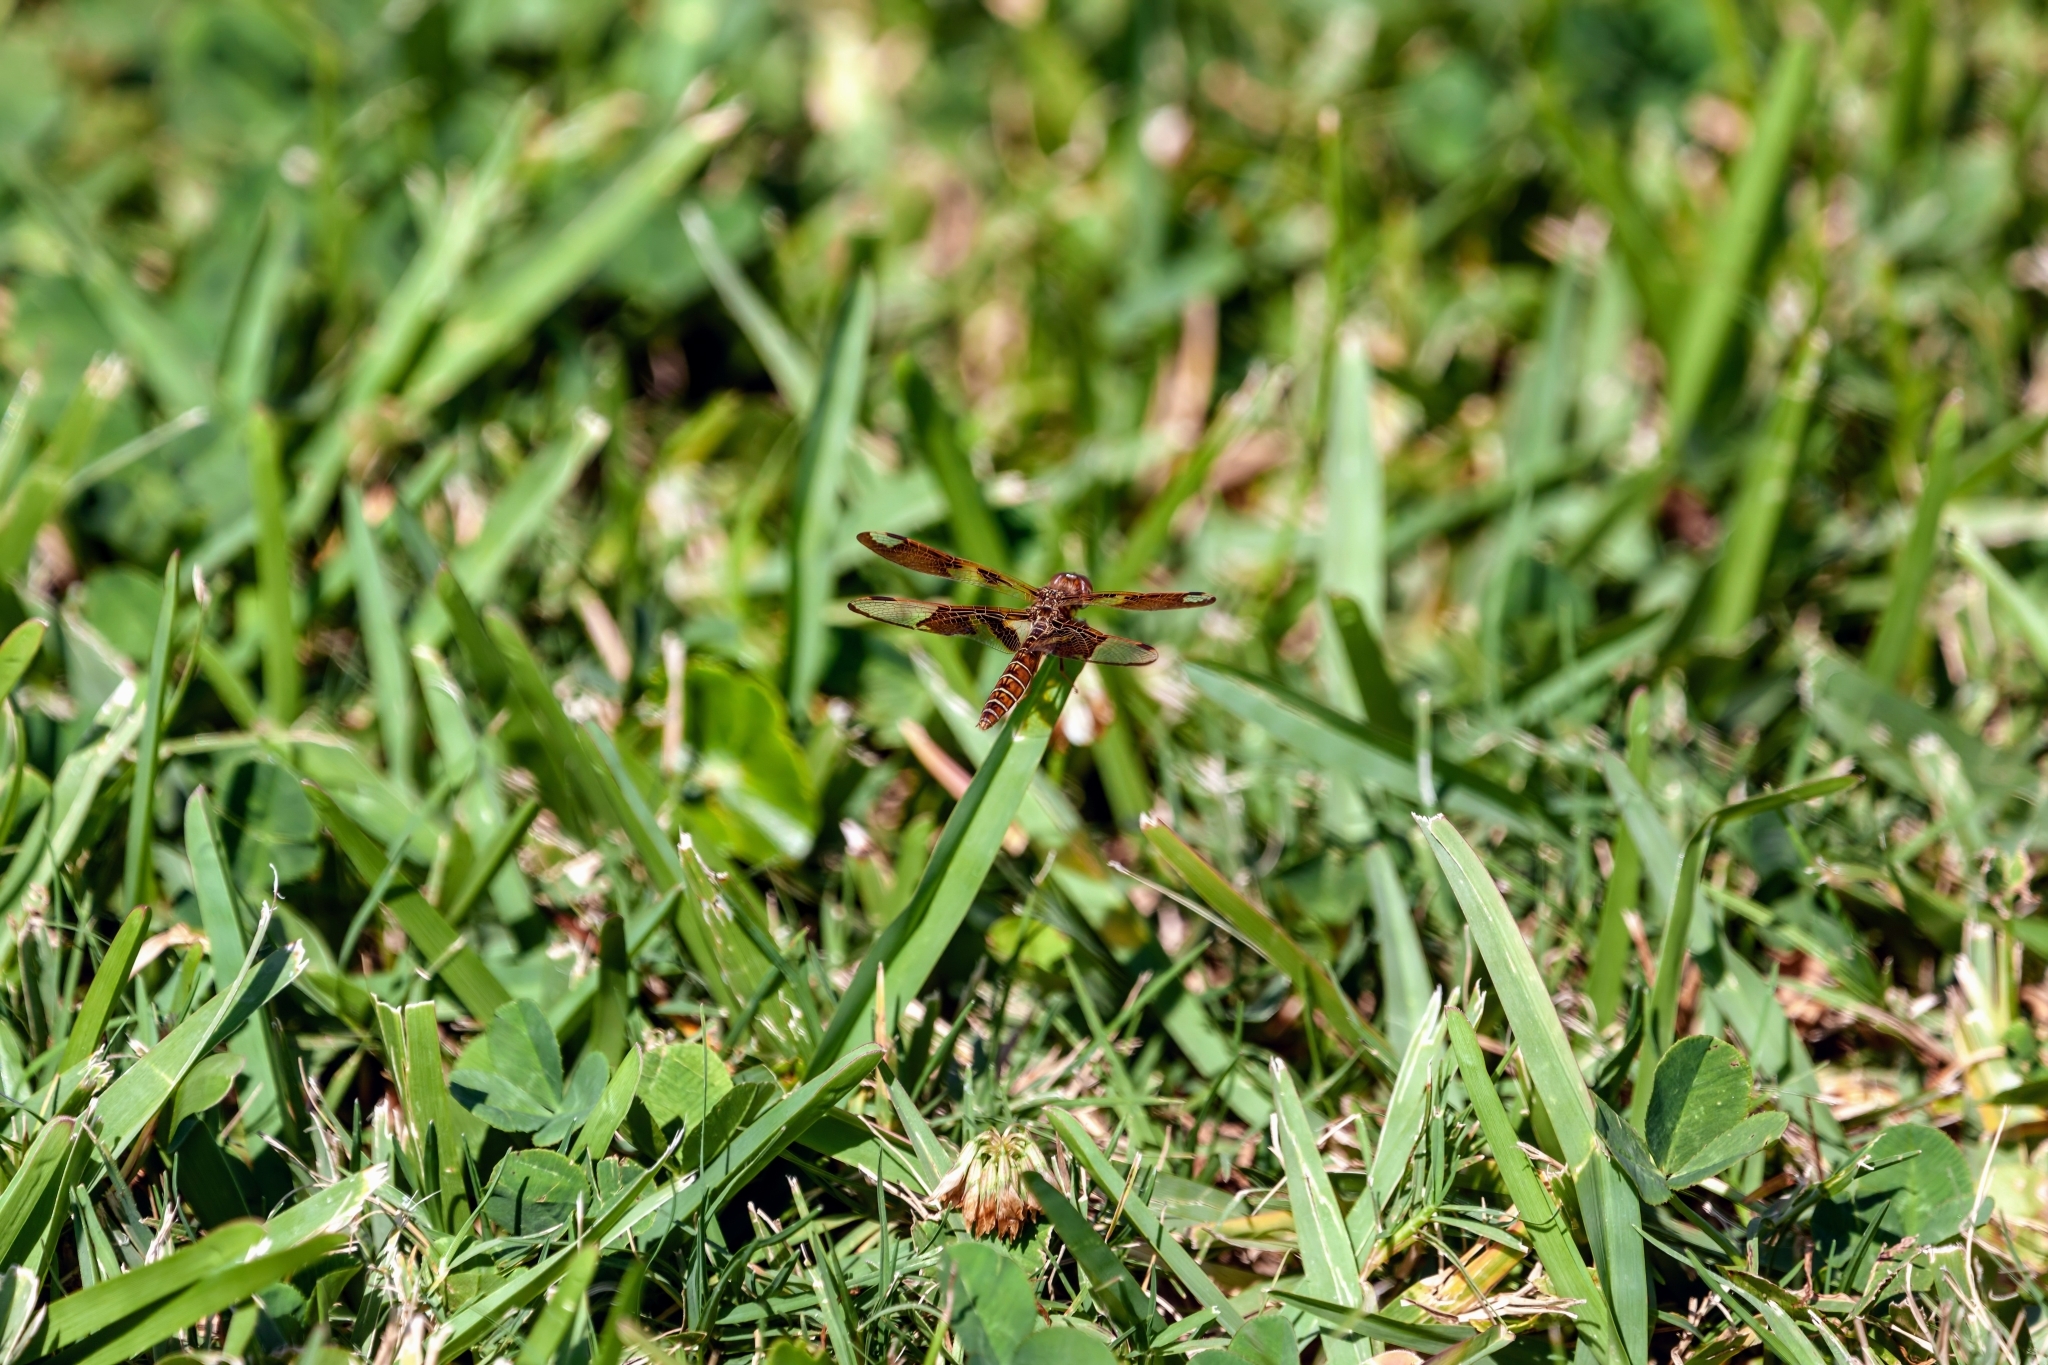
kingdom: Animalia
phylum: Arthropoda
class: Insecta
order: Odonata
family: Libellulidae
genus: Perithemis
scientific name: Perithemis tenera
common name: Eastern amberwing
